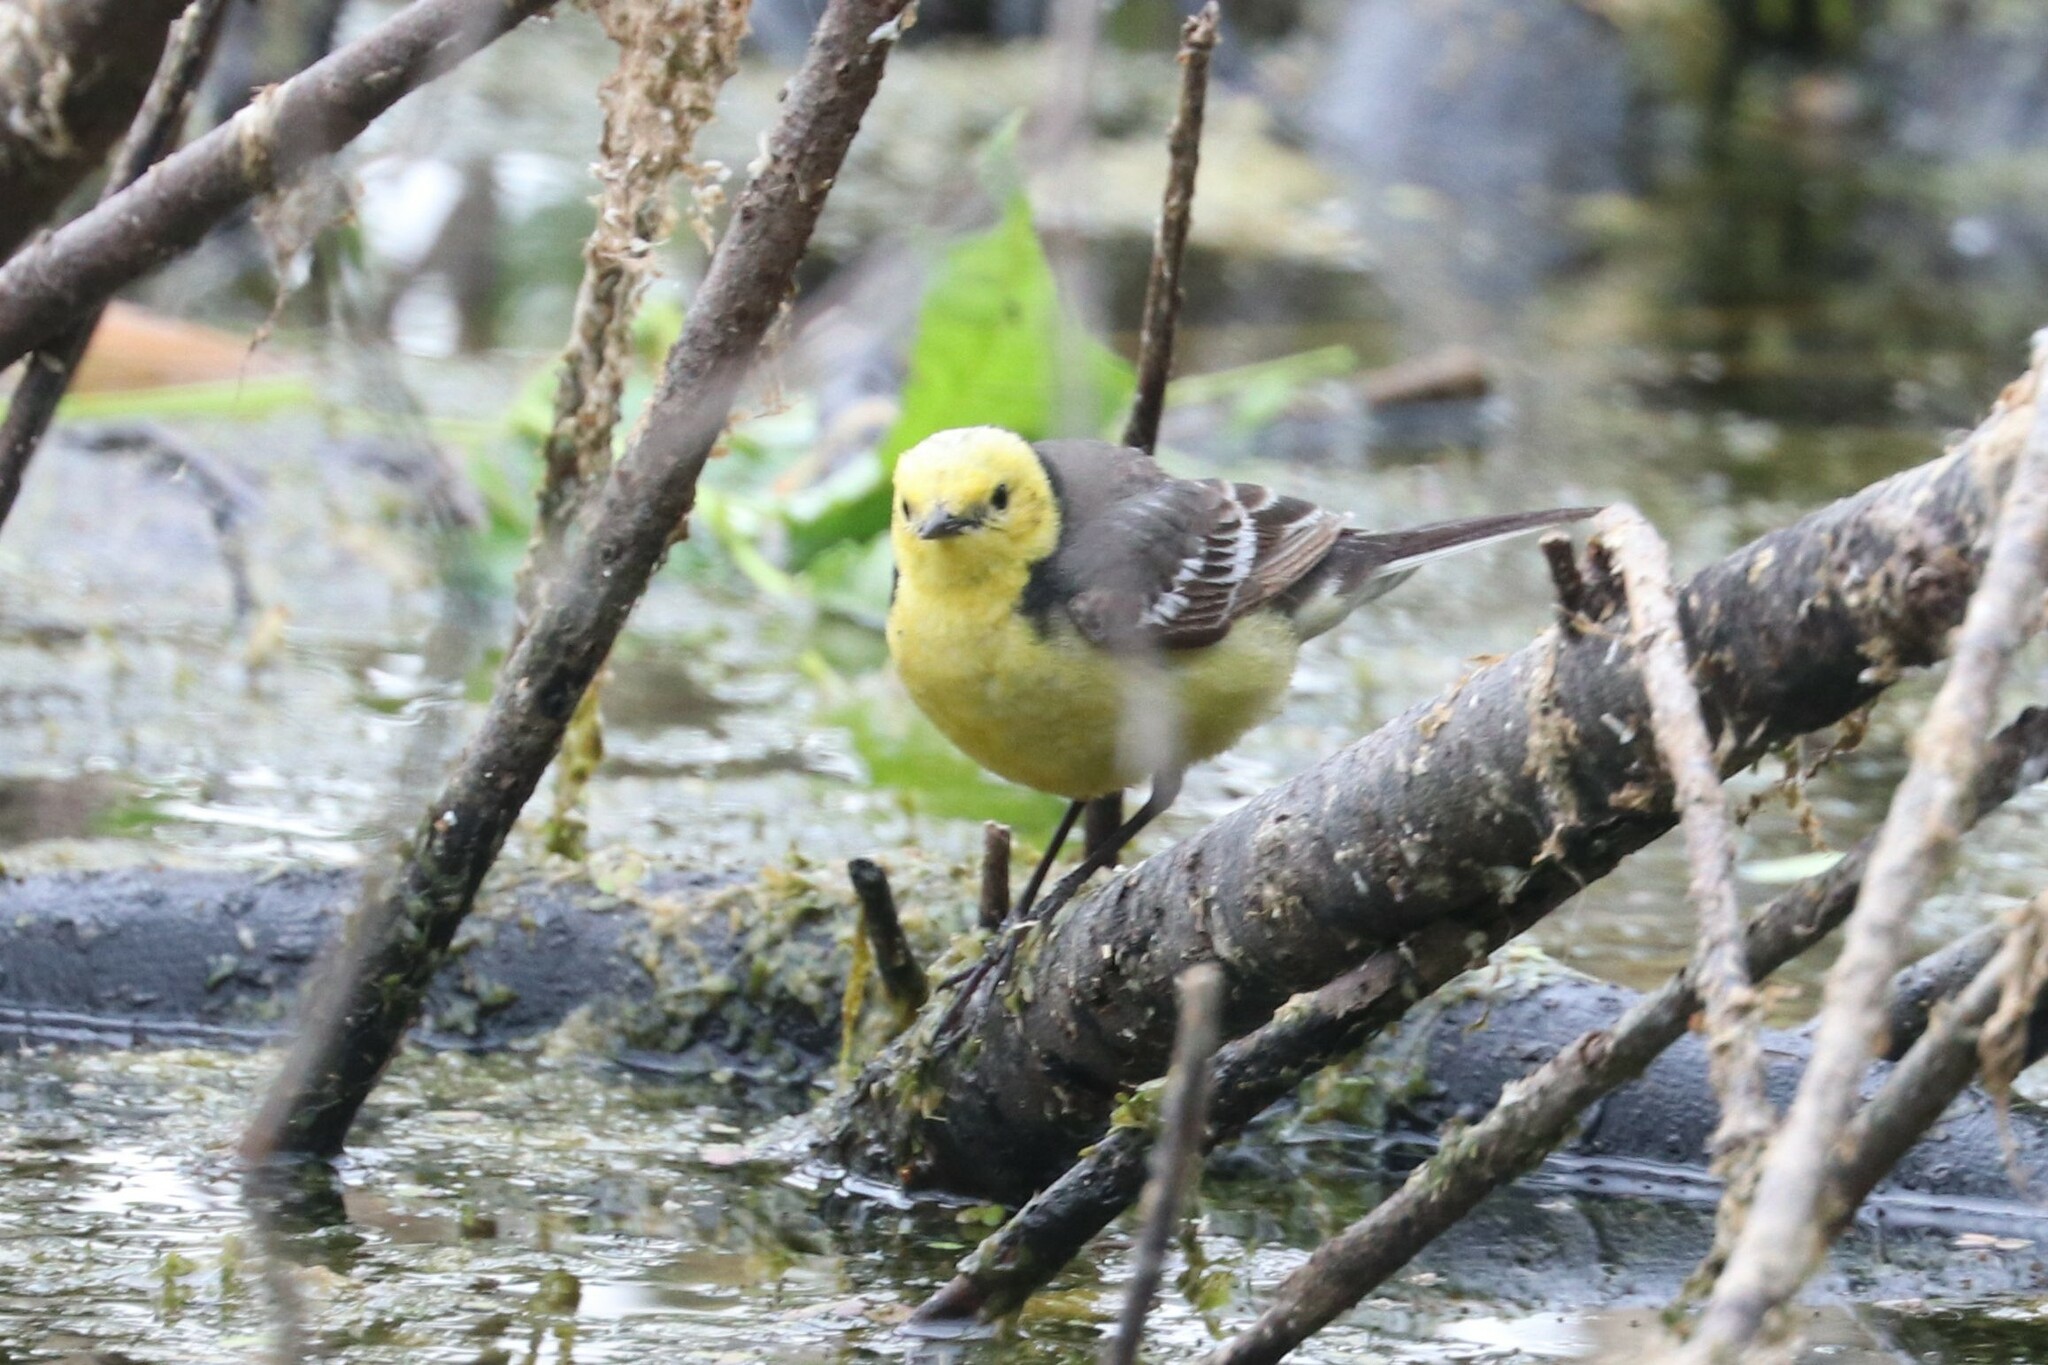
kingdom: Animalia
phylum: Chordata
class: Aves
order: Passeriformes
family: Motacillidae
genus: Motacilla
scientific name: Motacilla citreola
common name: Citrine wagtail
